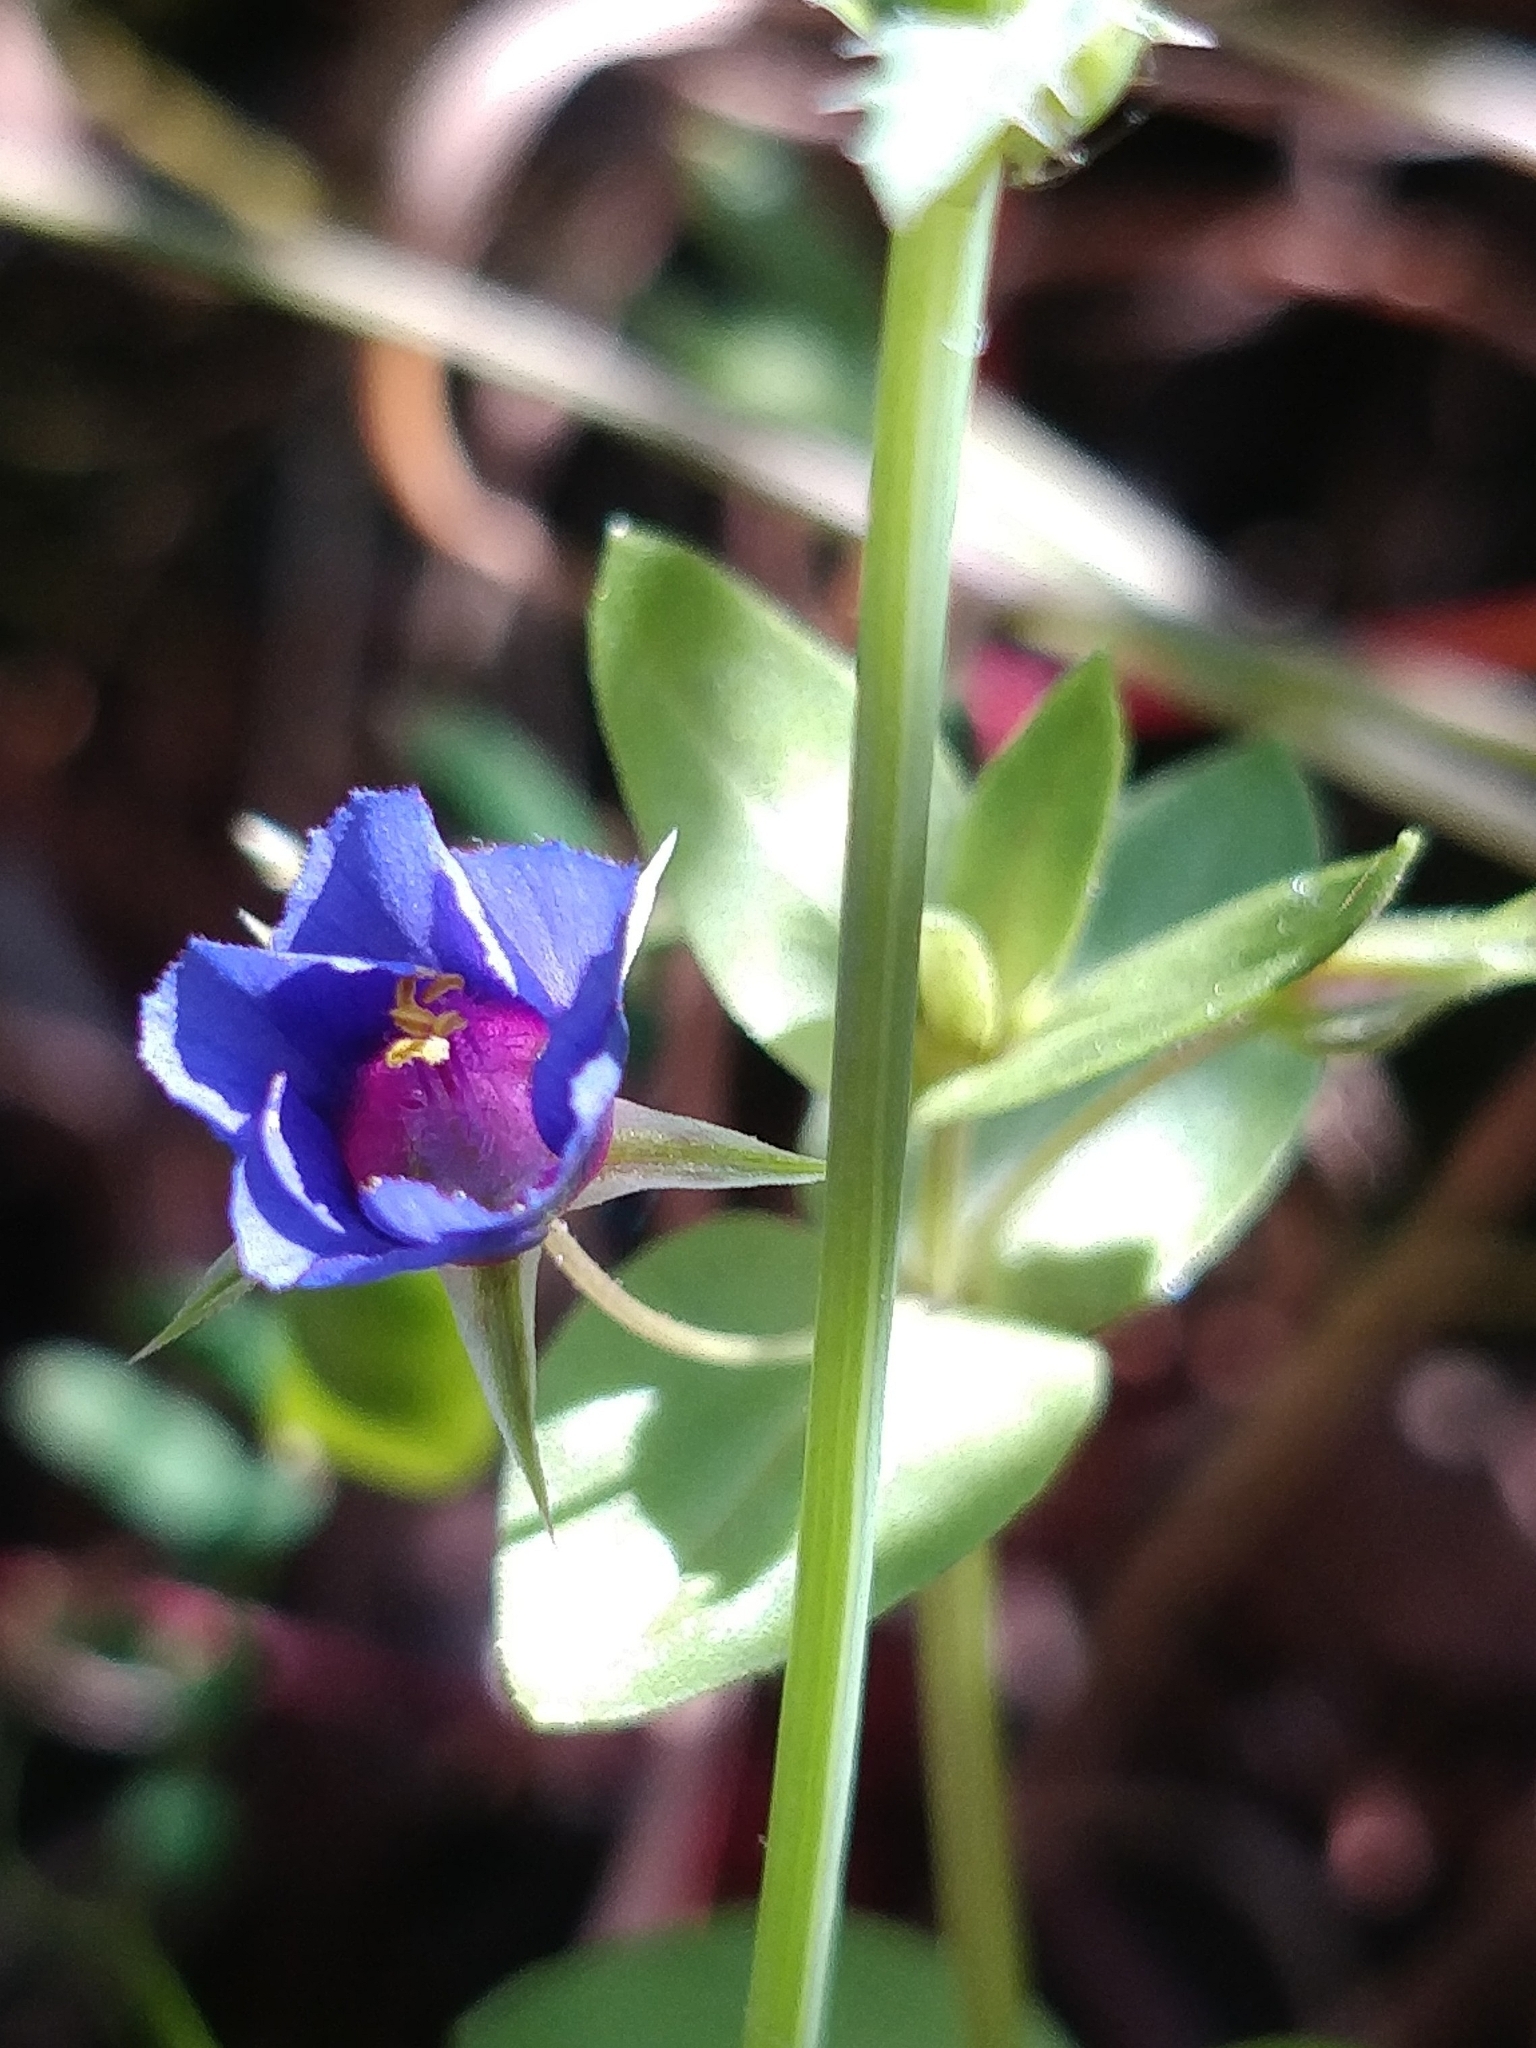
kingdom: Plantae
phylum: Tracheophyta
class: Magnoliopsida
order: Ericales
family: Primulaceae
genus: Lysimachia
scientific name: Lysimachia loeflingii
